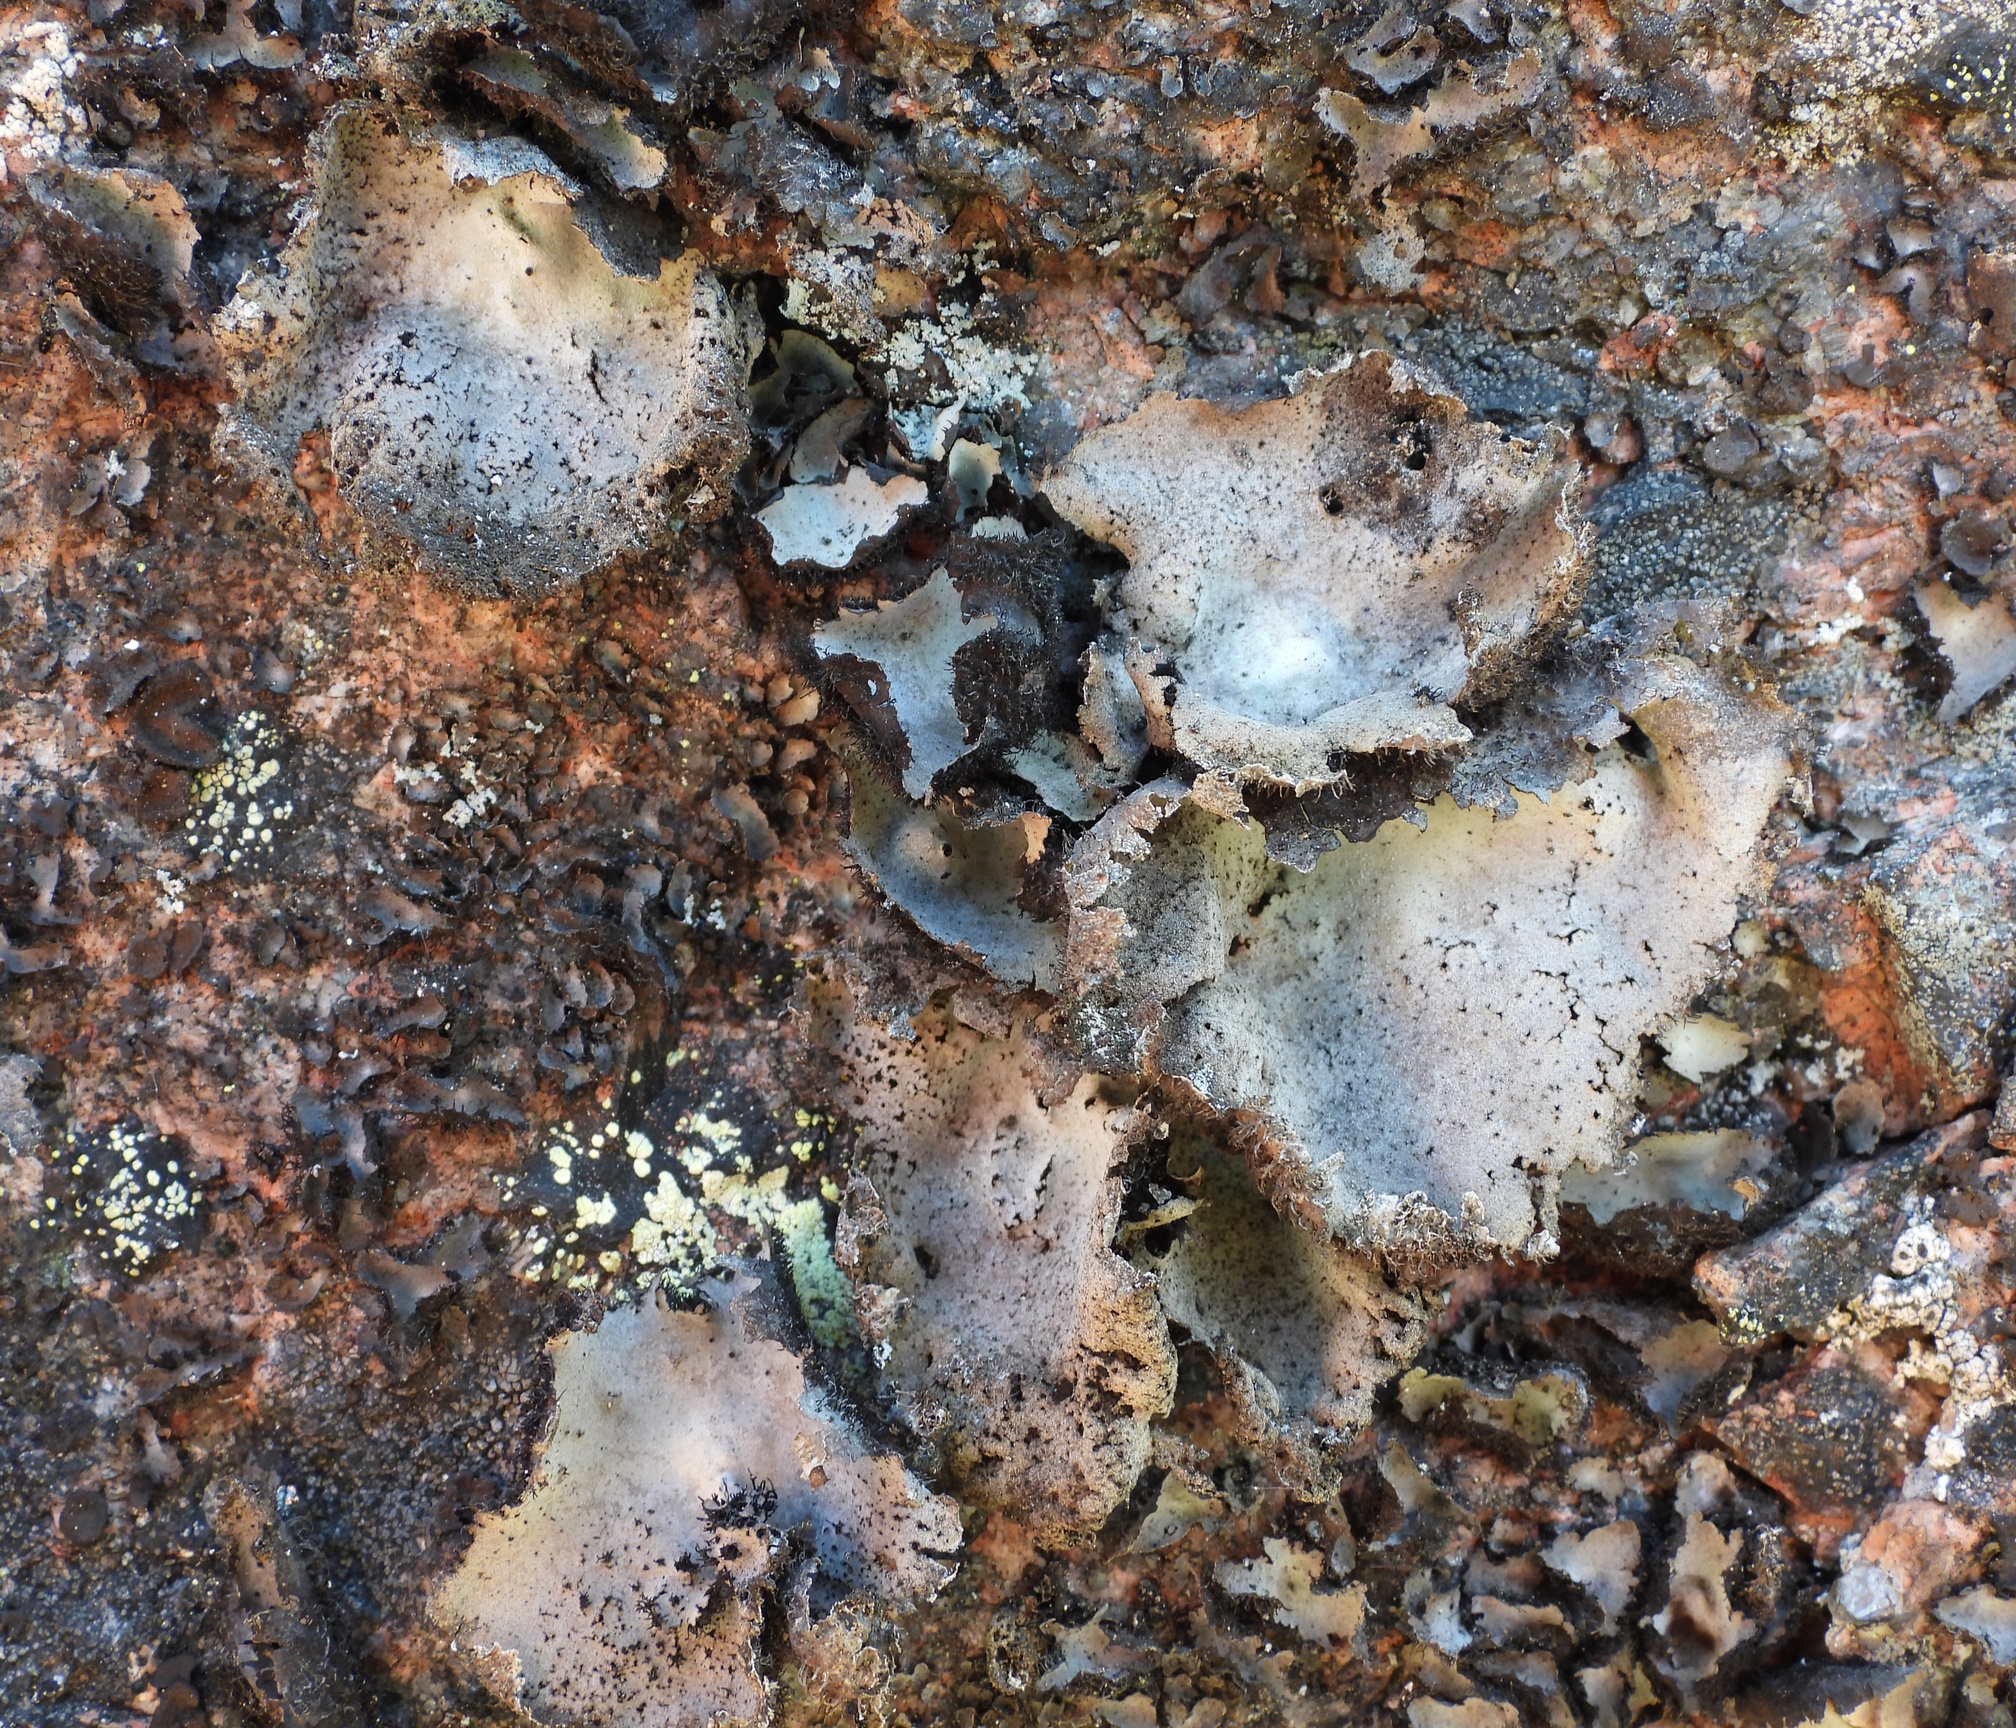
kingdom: Fungi
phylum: Ascomycota
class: Lecanoromycetes
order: Umbilicariales
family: Umbilicariaceae
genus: Umbilicaria
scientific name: Umbilicaria hirsuta
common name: Granulating rocktripe lichen
